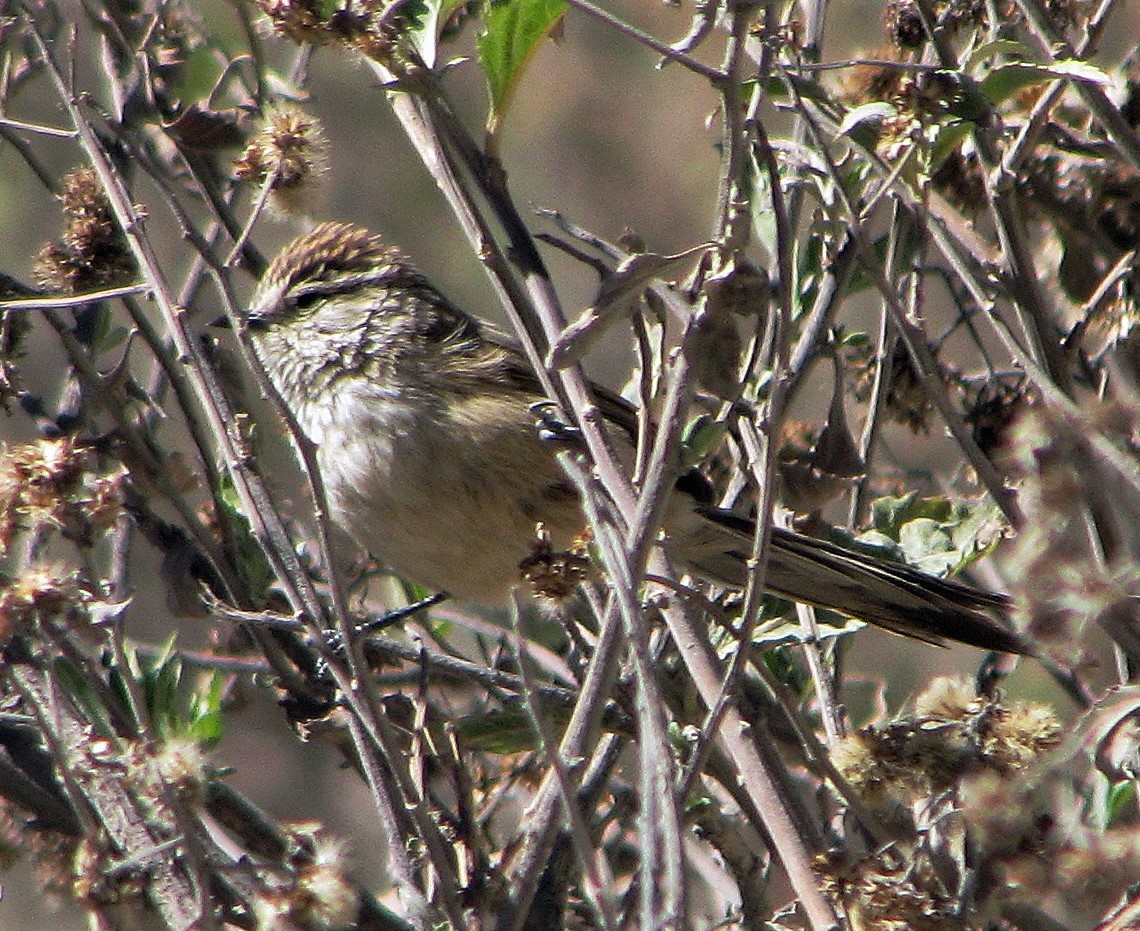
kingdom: Animalia
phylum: Chordata
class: Aves
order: Passeriformes
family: Furnariidae
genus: Leptasthenura
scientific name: Leptasthenura aegithaloides
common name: Plain-mantled tit-spinetail
